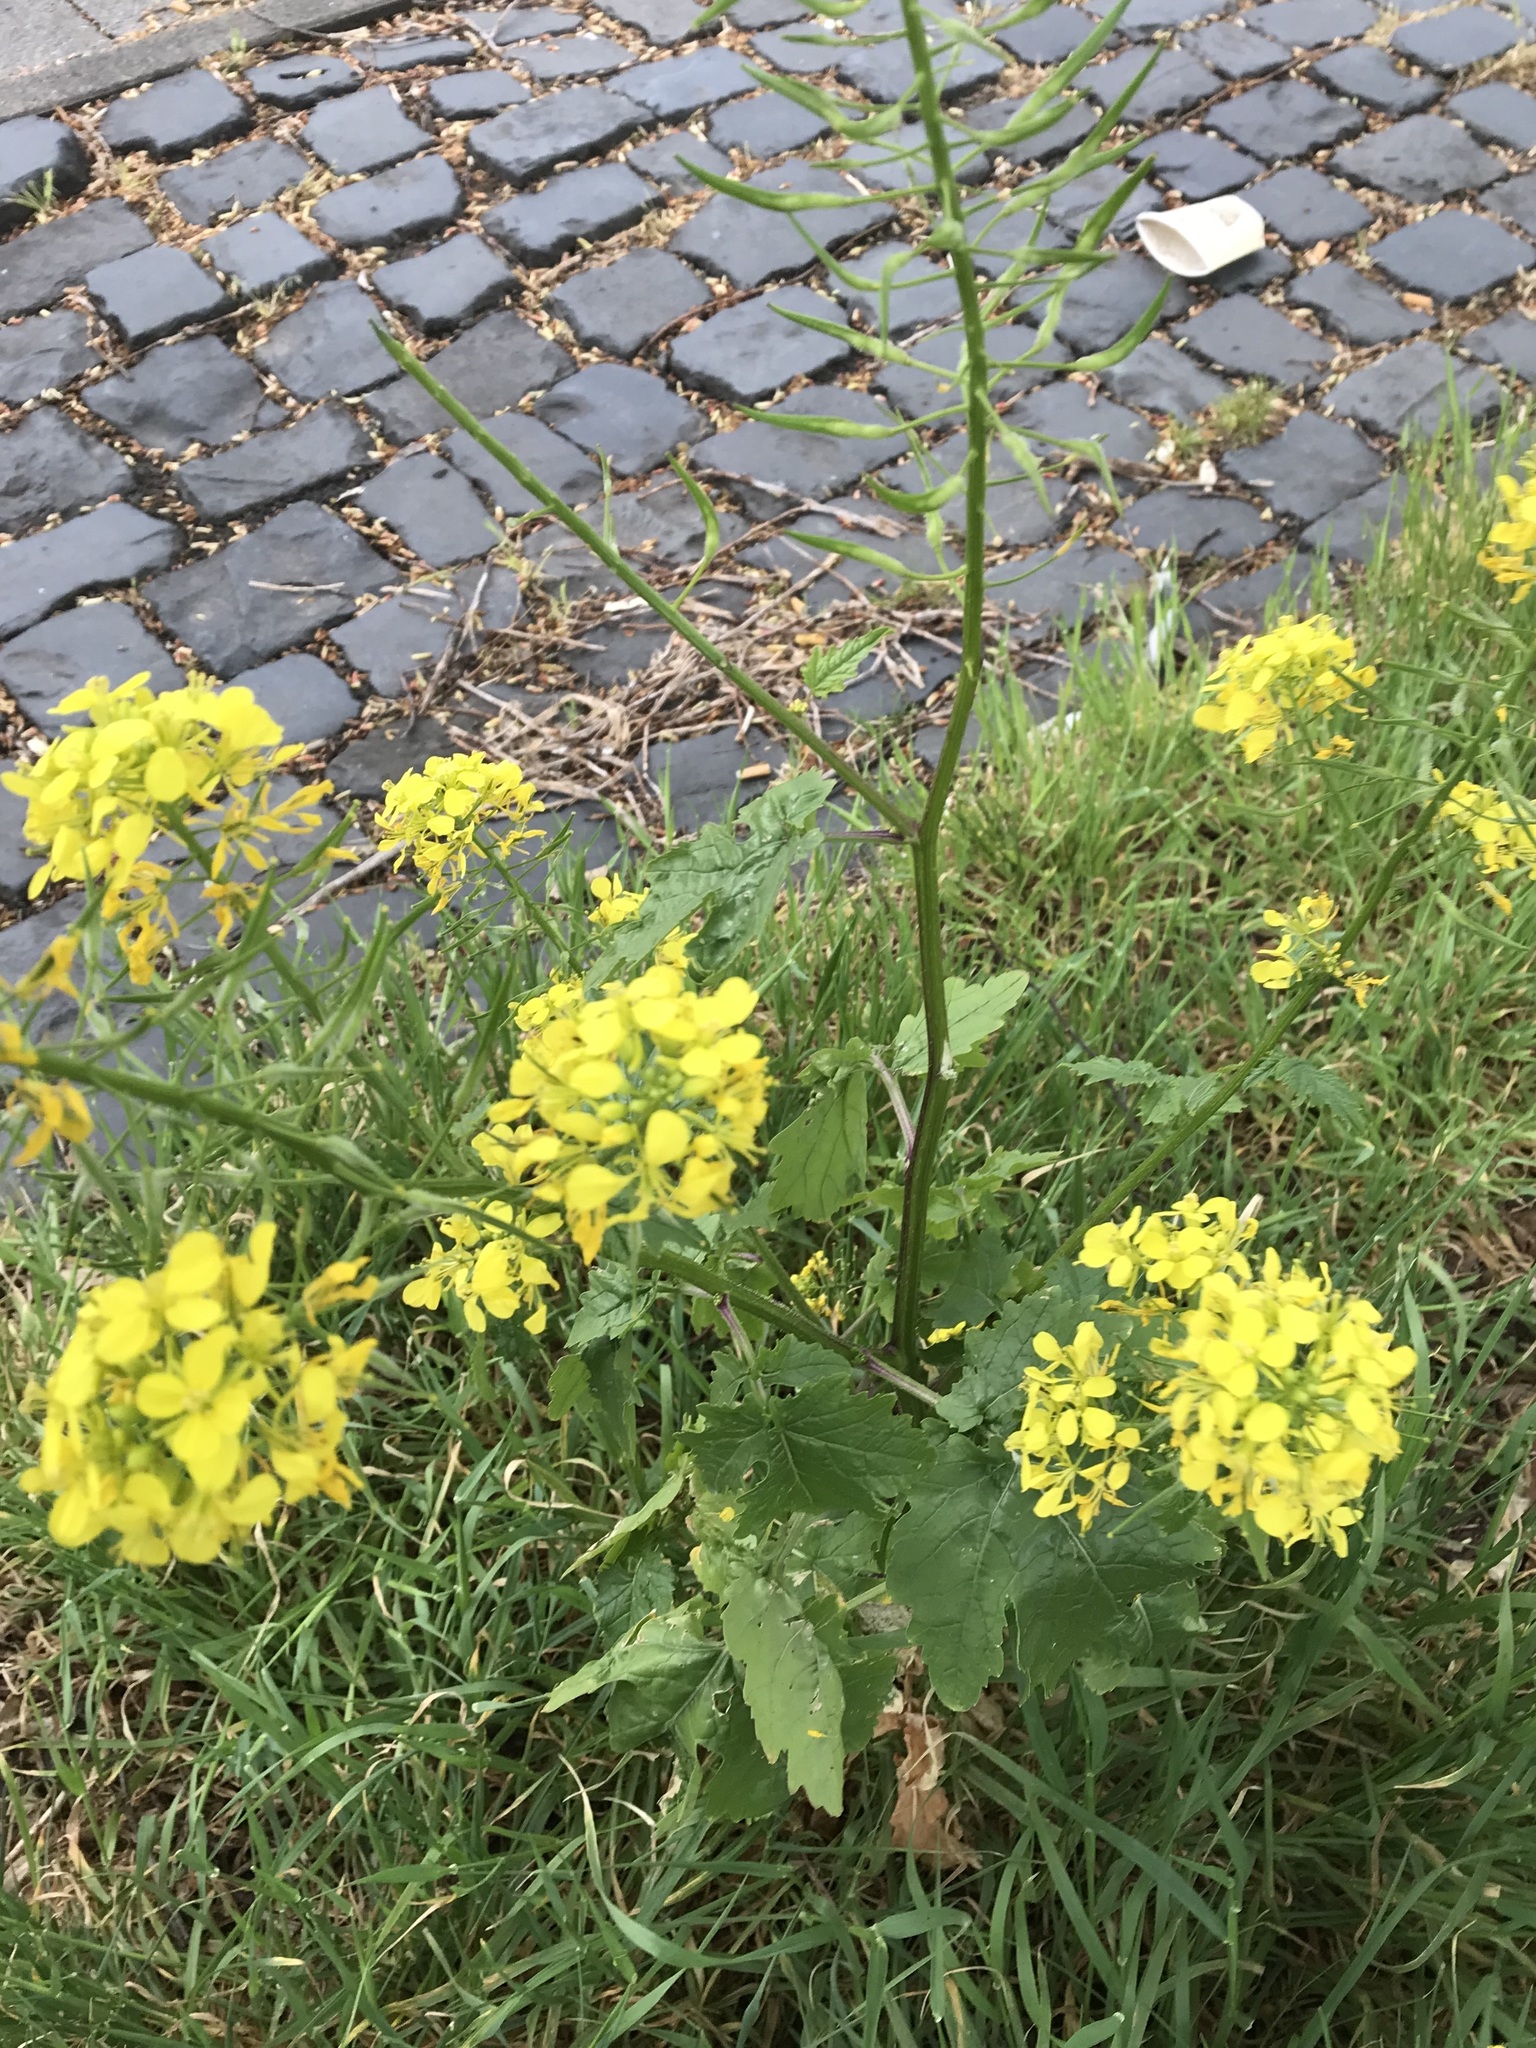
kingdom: Plantae
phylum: Tracheophyta
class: Magnoliopsida
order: Brassicales
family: Brassicaceae
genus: Sinapis
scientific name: Sinapis alba
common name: White mustard
